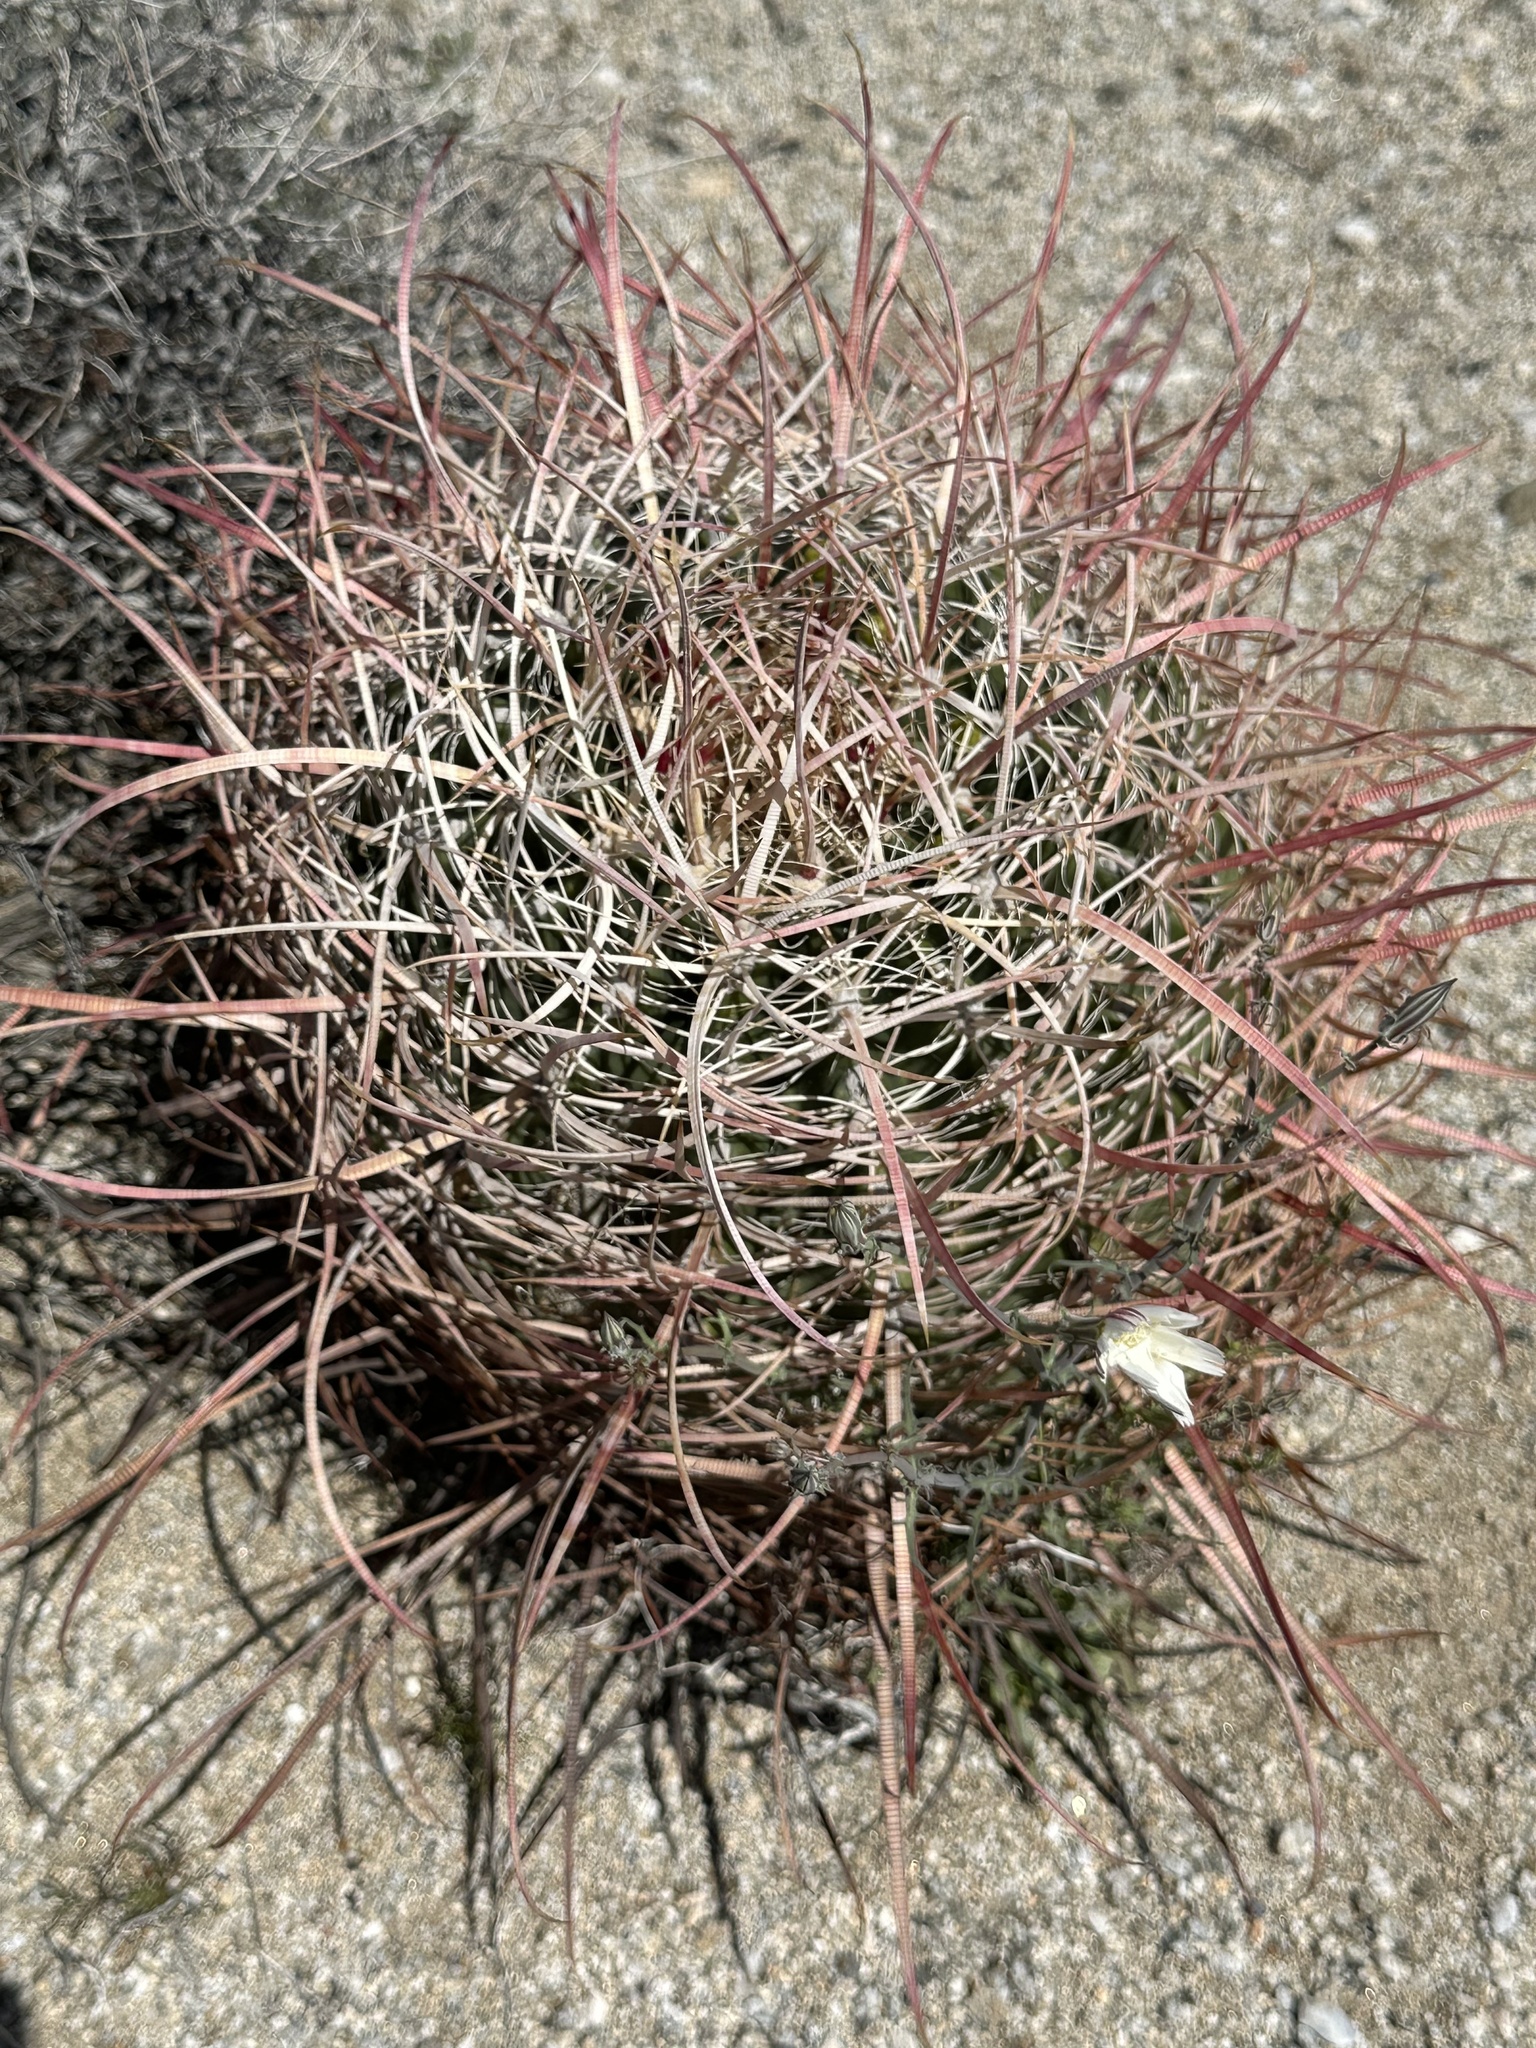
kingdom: Plantae
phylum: Tracheophyta
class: Magnoliopsida
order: Caryophyllales
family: Cactaceae
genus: Ferocactus
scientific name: Ferocactus cylindraceus
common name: California barrel cactus
